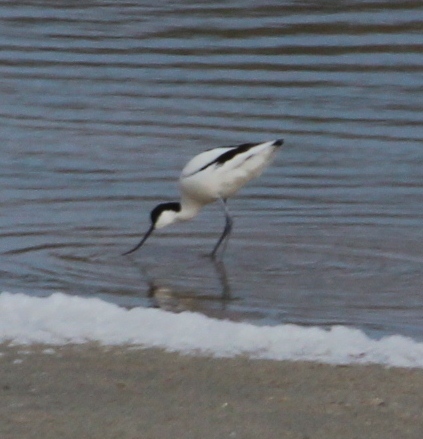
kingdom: Animalia
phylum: Chordata
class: Aves
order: Charadriiformes
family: Recurvirostridae
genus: Recurvirostra
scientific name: Recurvirostra avosetta
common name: Pied avocet
